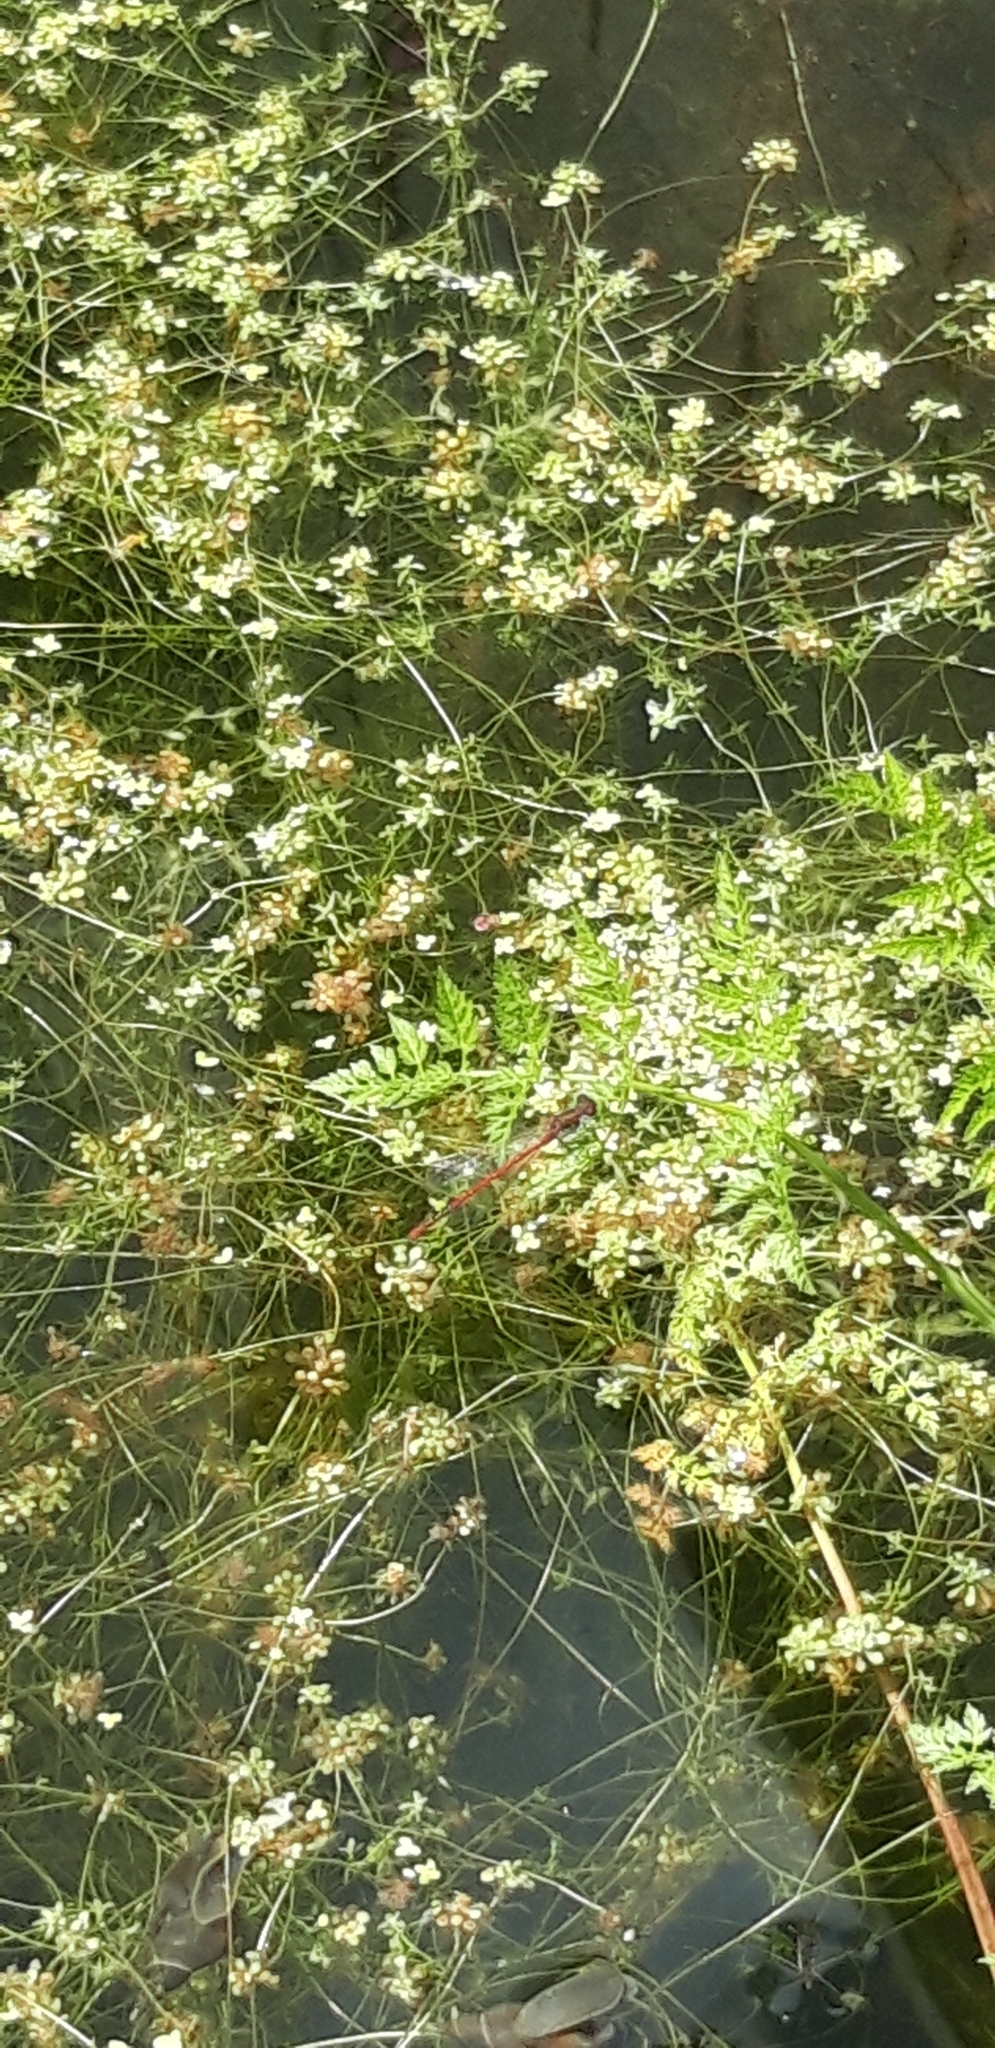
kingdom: Animalia
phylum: Arthropoda
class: Insecta
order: Odonata
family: Coenagrionidae
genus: Pyrrhosoma
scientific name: Pyrrhosoma nymphula
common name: Large red damsel
